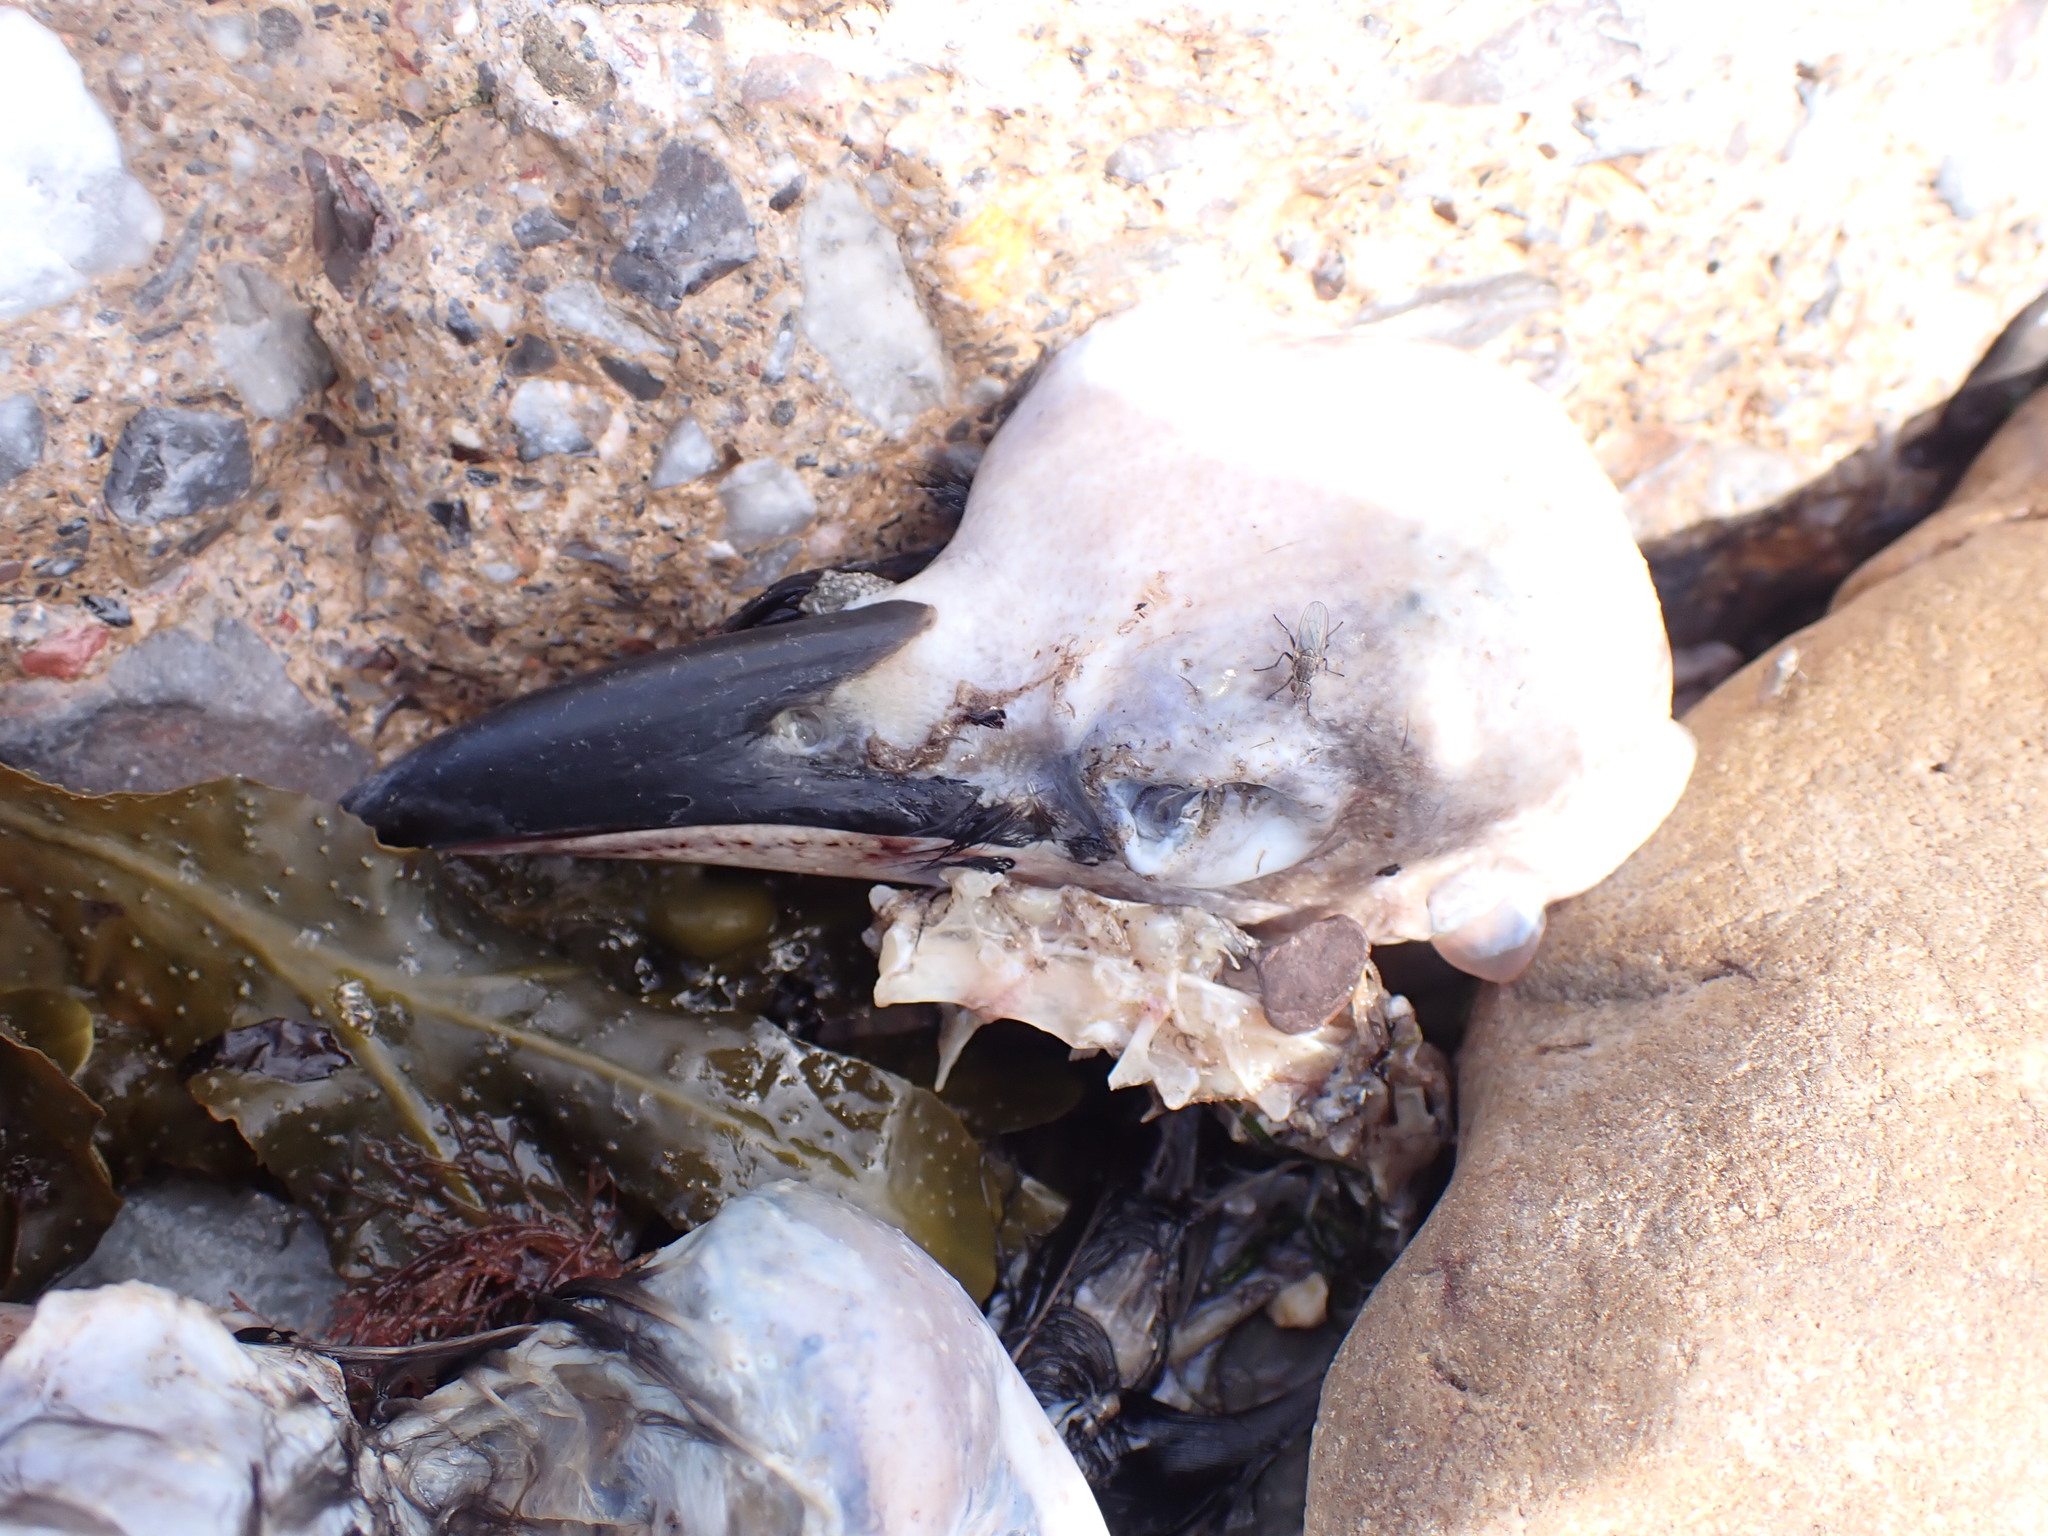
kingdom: Animalia
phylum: Chordata
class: Aves
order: Passeriformes
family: Corvidae
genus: Corvus
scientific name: Corvus corone
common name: Carrion crow
